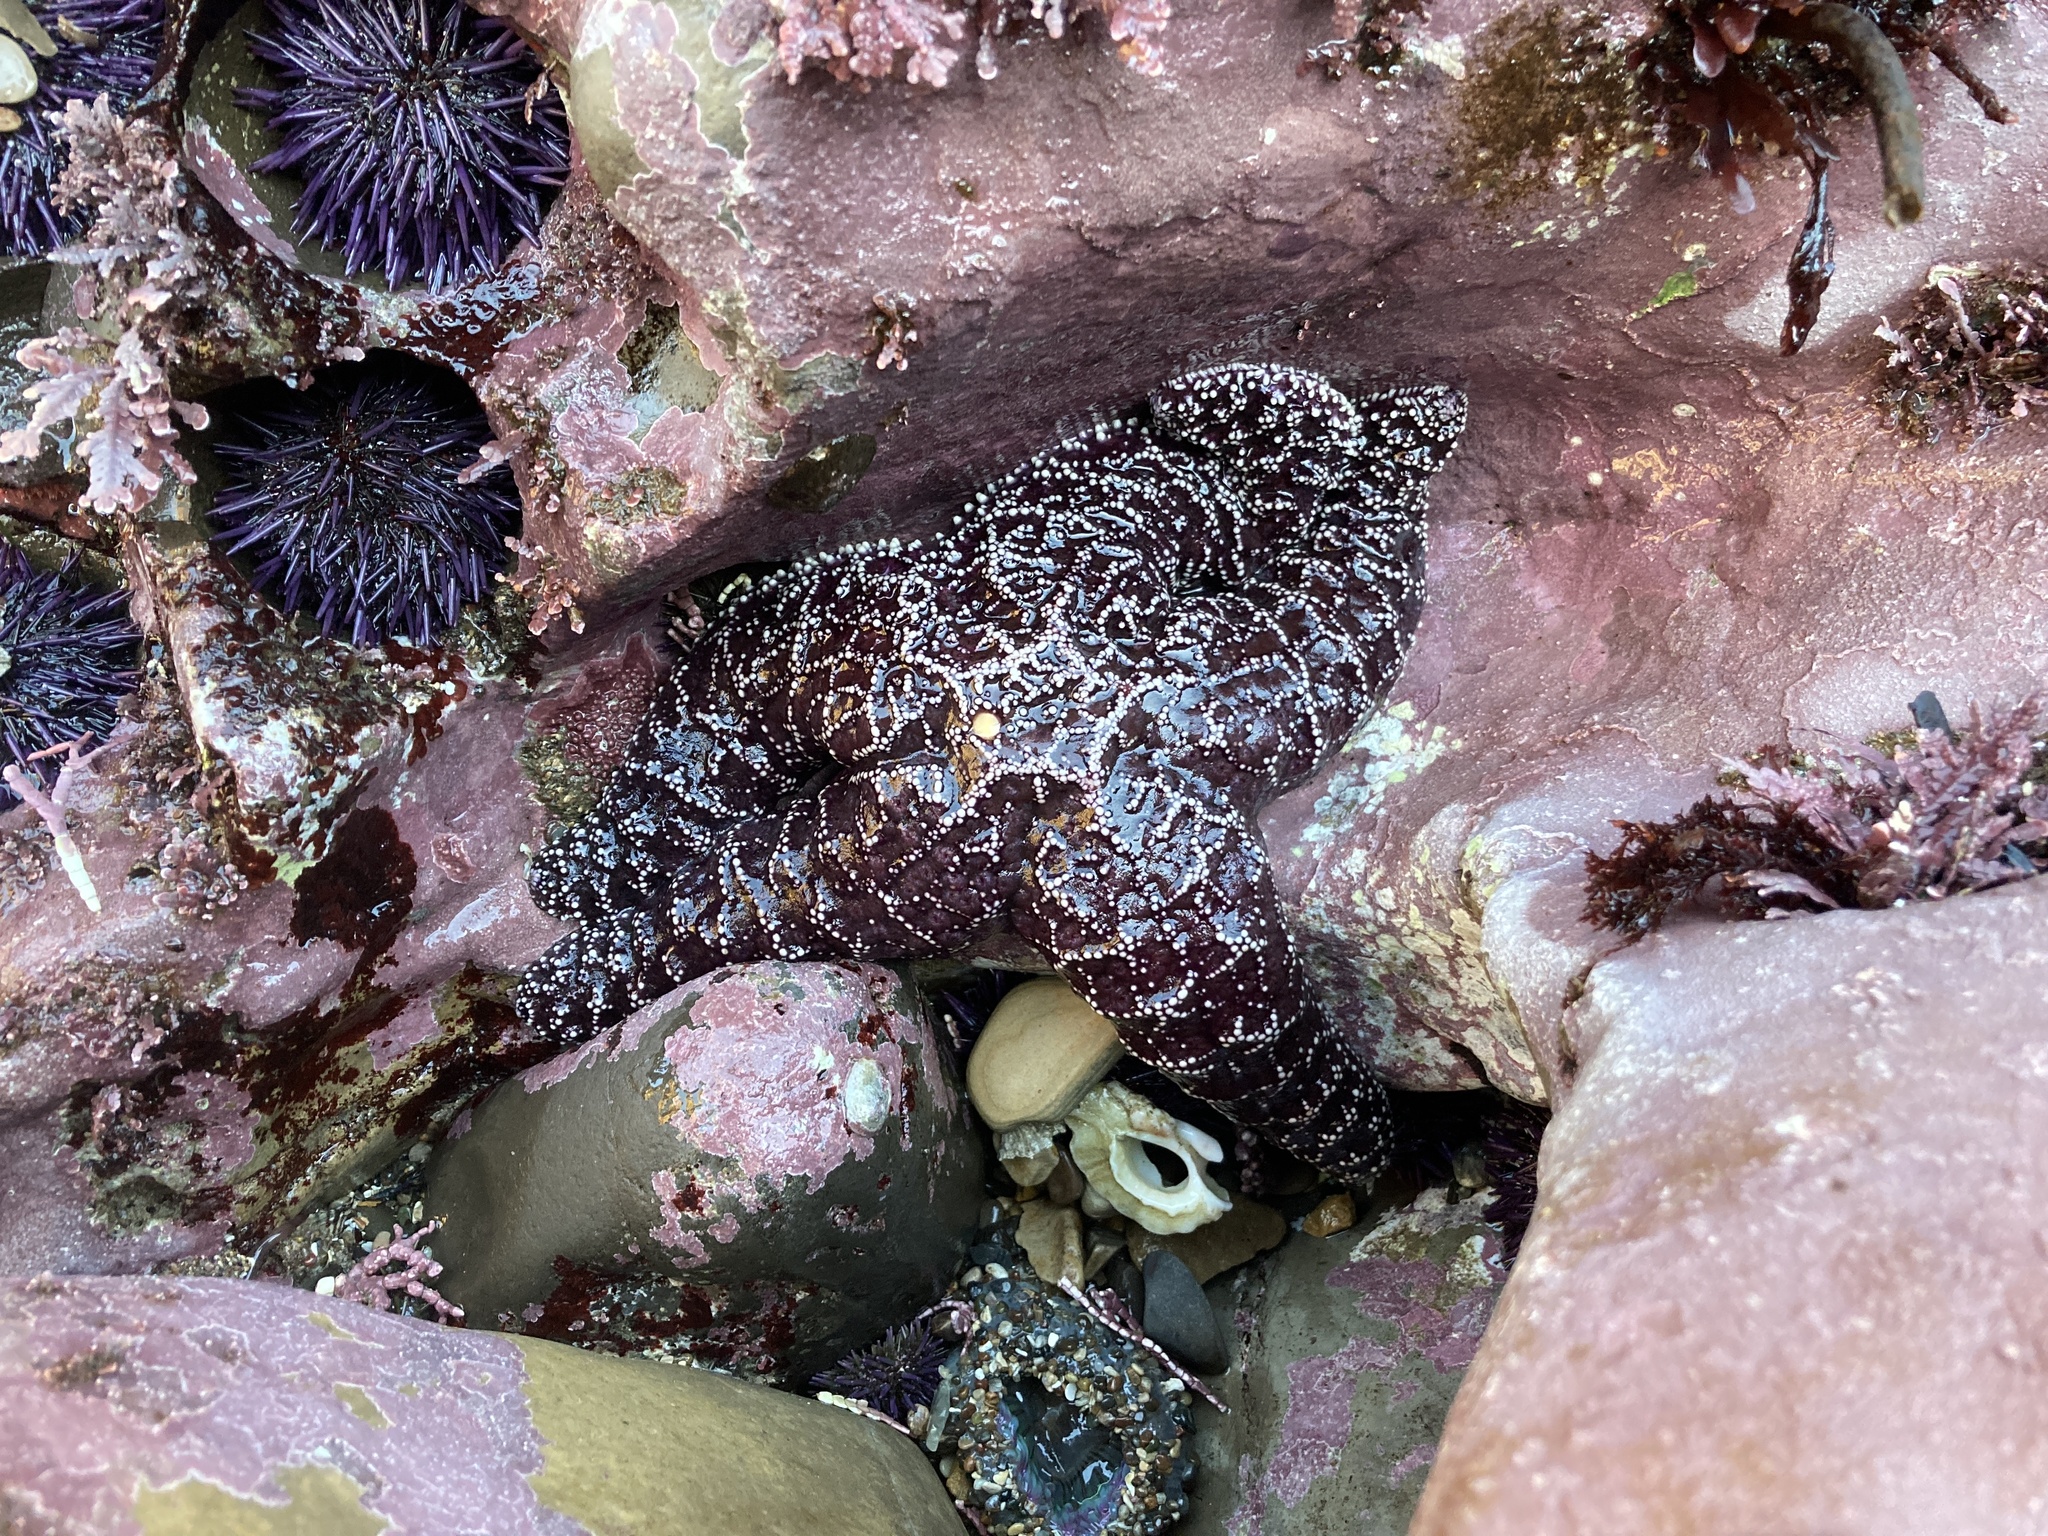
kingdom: Animalia
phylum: Echinodermata
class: Asteroidea
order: Forcipulatida
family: Asteriidae
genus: Pisaster
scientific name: Pisaster ochraceus
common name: Ochre stars
